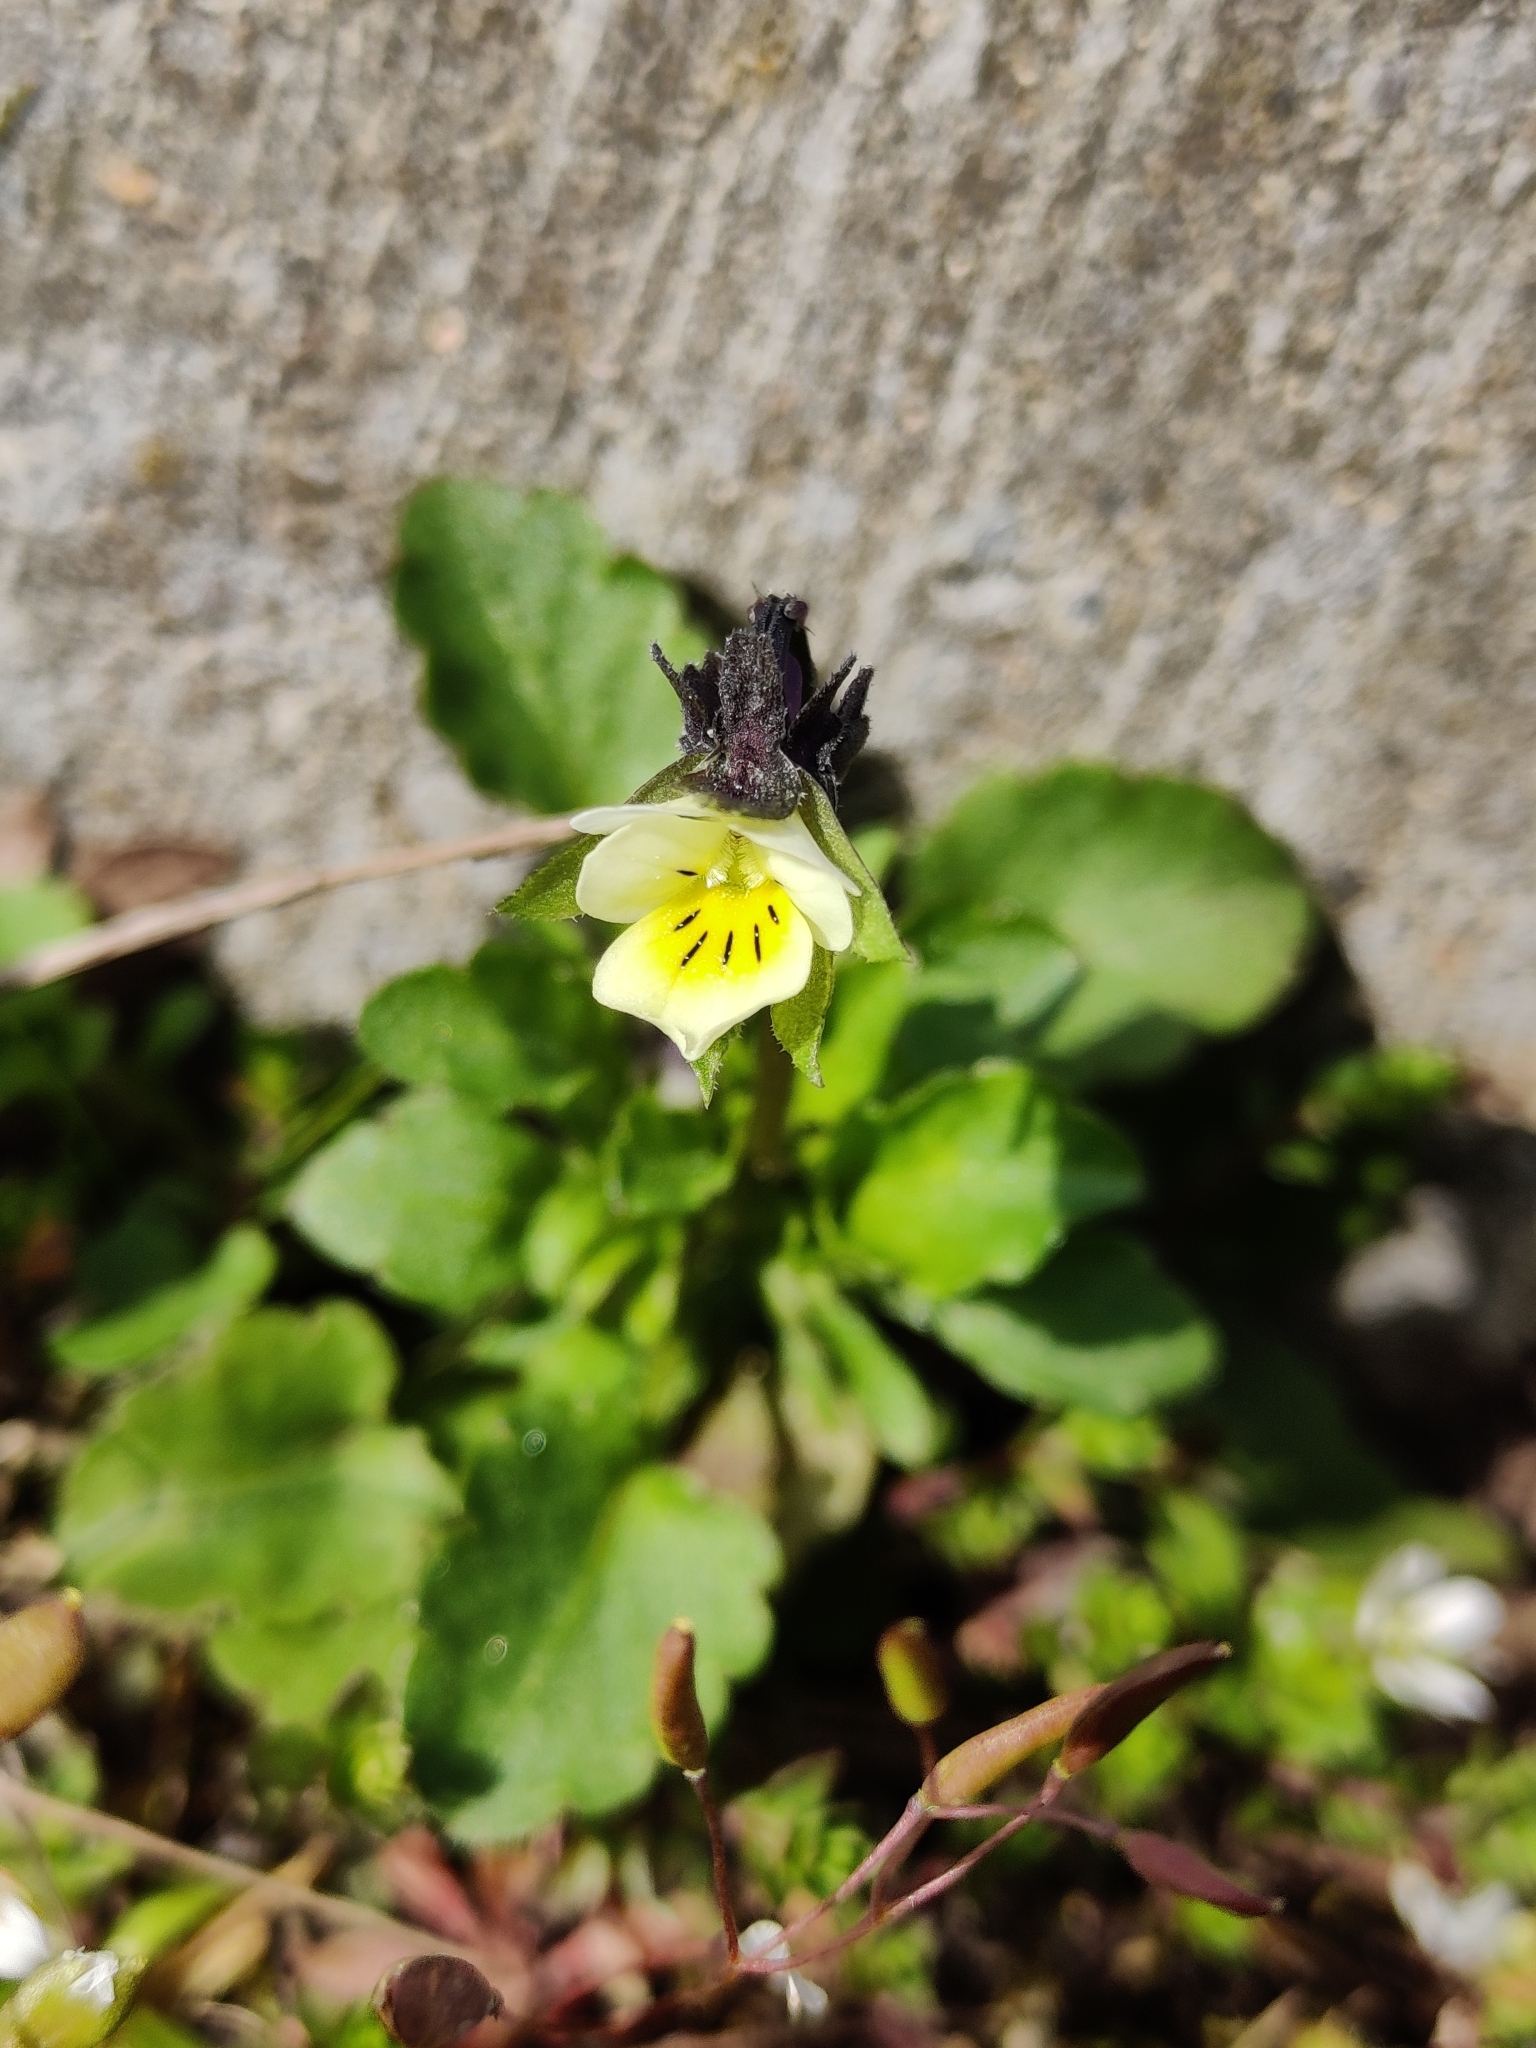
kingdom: Plantae
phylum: Tracheophyta
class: Magnoliopsida
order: Malpighiales
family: Violaceae
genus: Viola
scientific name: Viola arvensis
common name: Field pansy
